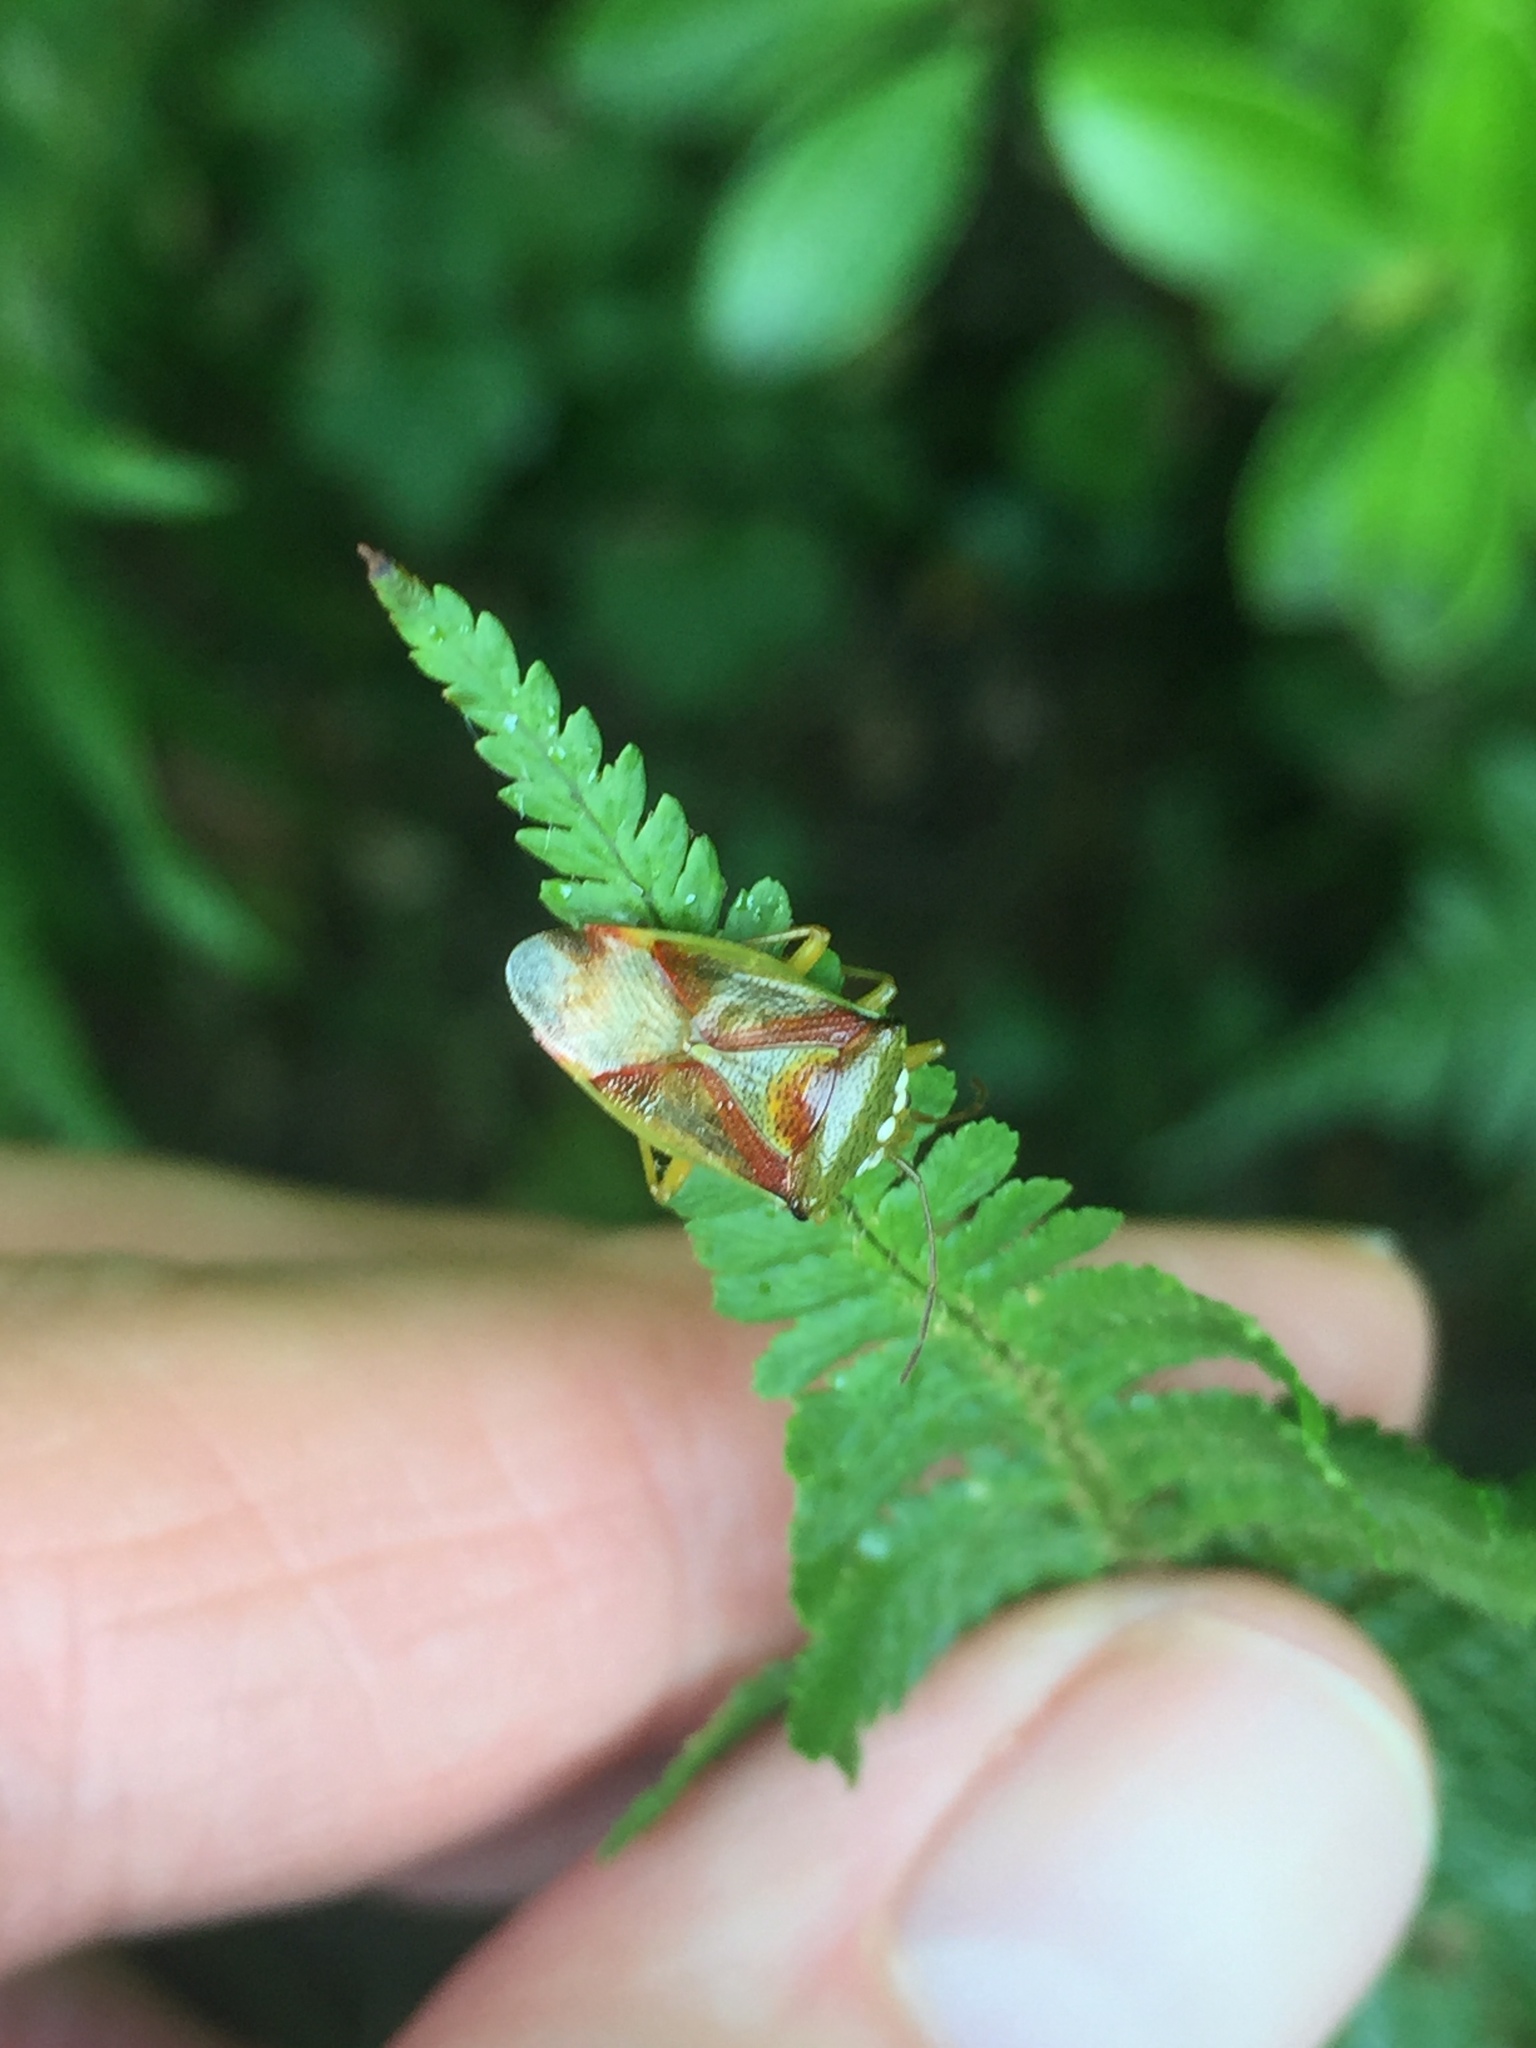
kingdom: Animalia
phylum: Arthropoda
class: Insecta
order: Hemiptera
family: Acanthosomatidae
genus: Elasmostethus
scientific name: Elasmostethus interstinctus
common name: Birch shieldbug
